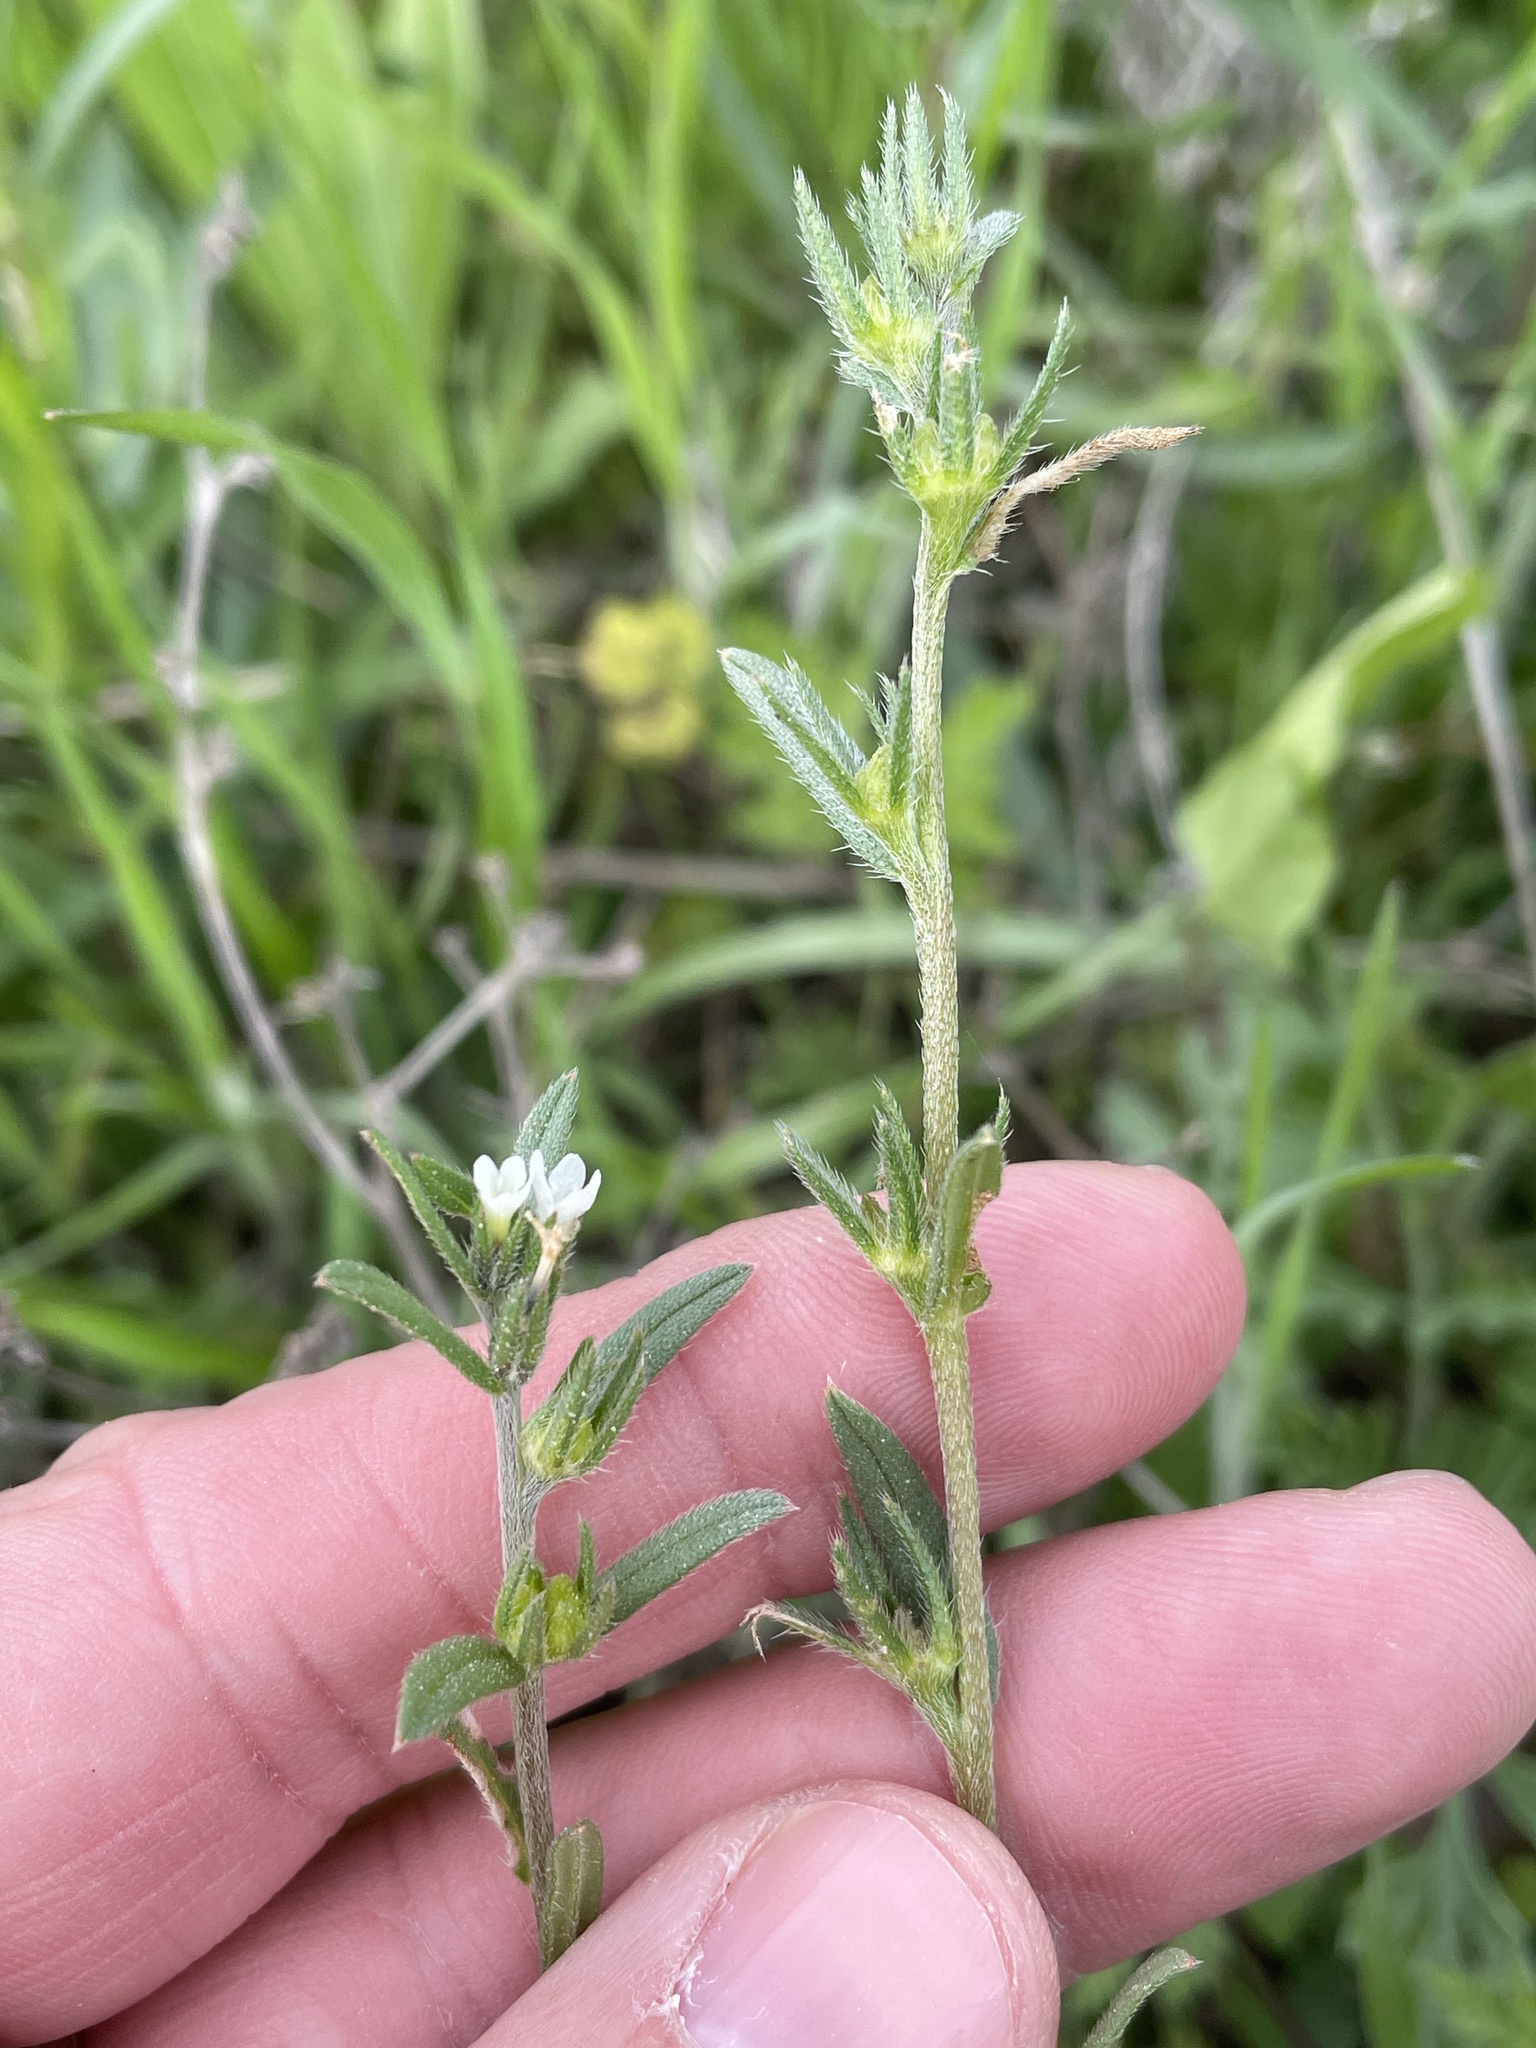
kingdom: Plantae
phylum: Tracheophyta
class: Magnoliopsida
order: Boraginales
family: Boraginaceae
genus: Buglossoides
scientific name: Buglossoides arvensis
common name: Corn gromwell
